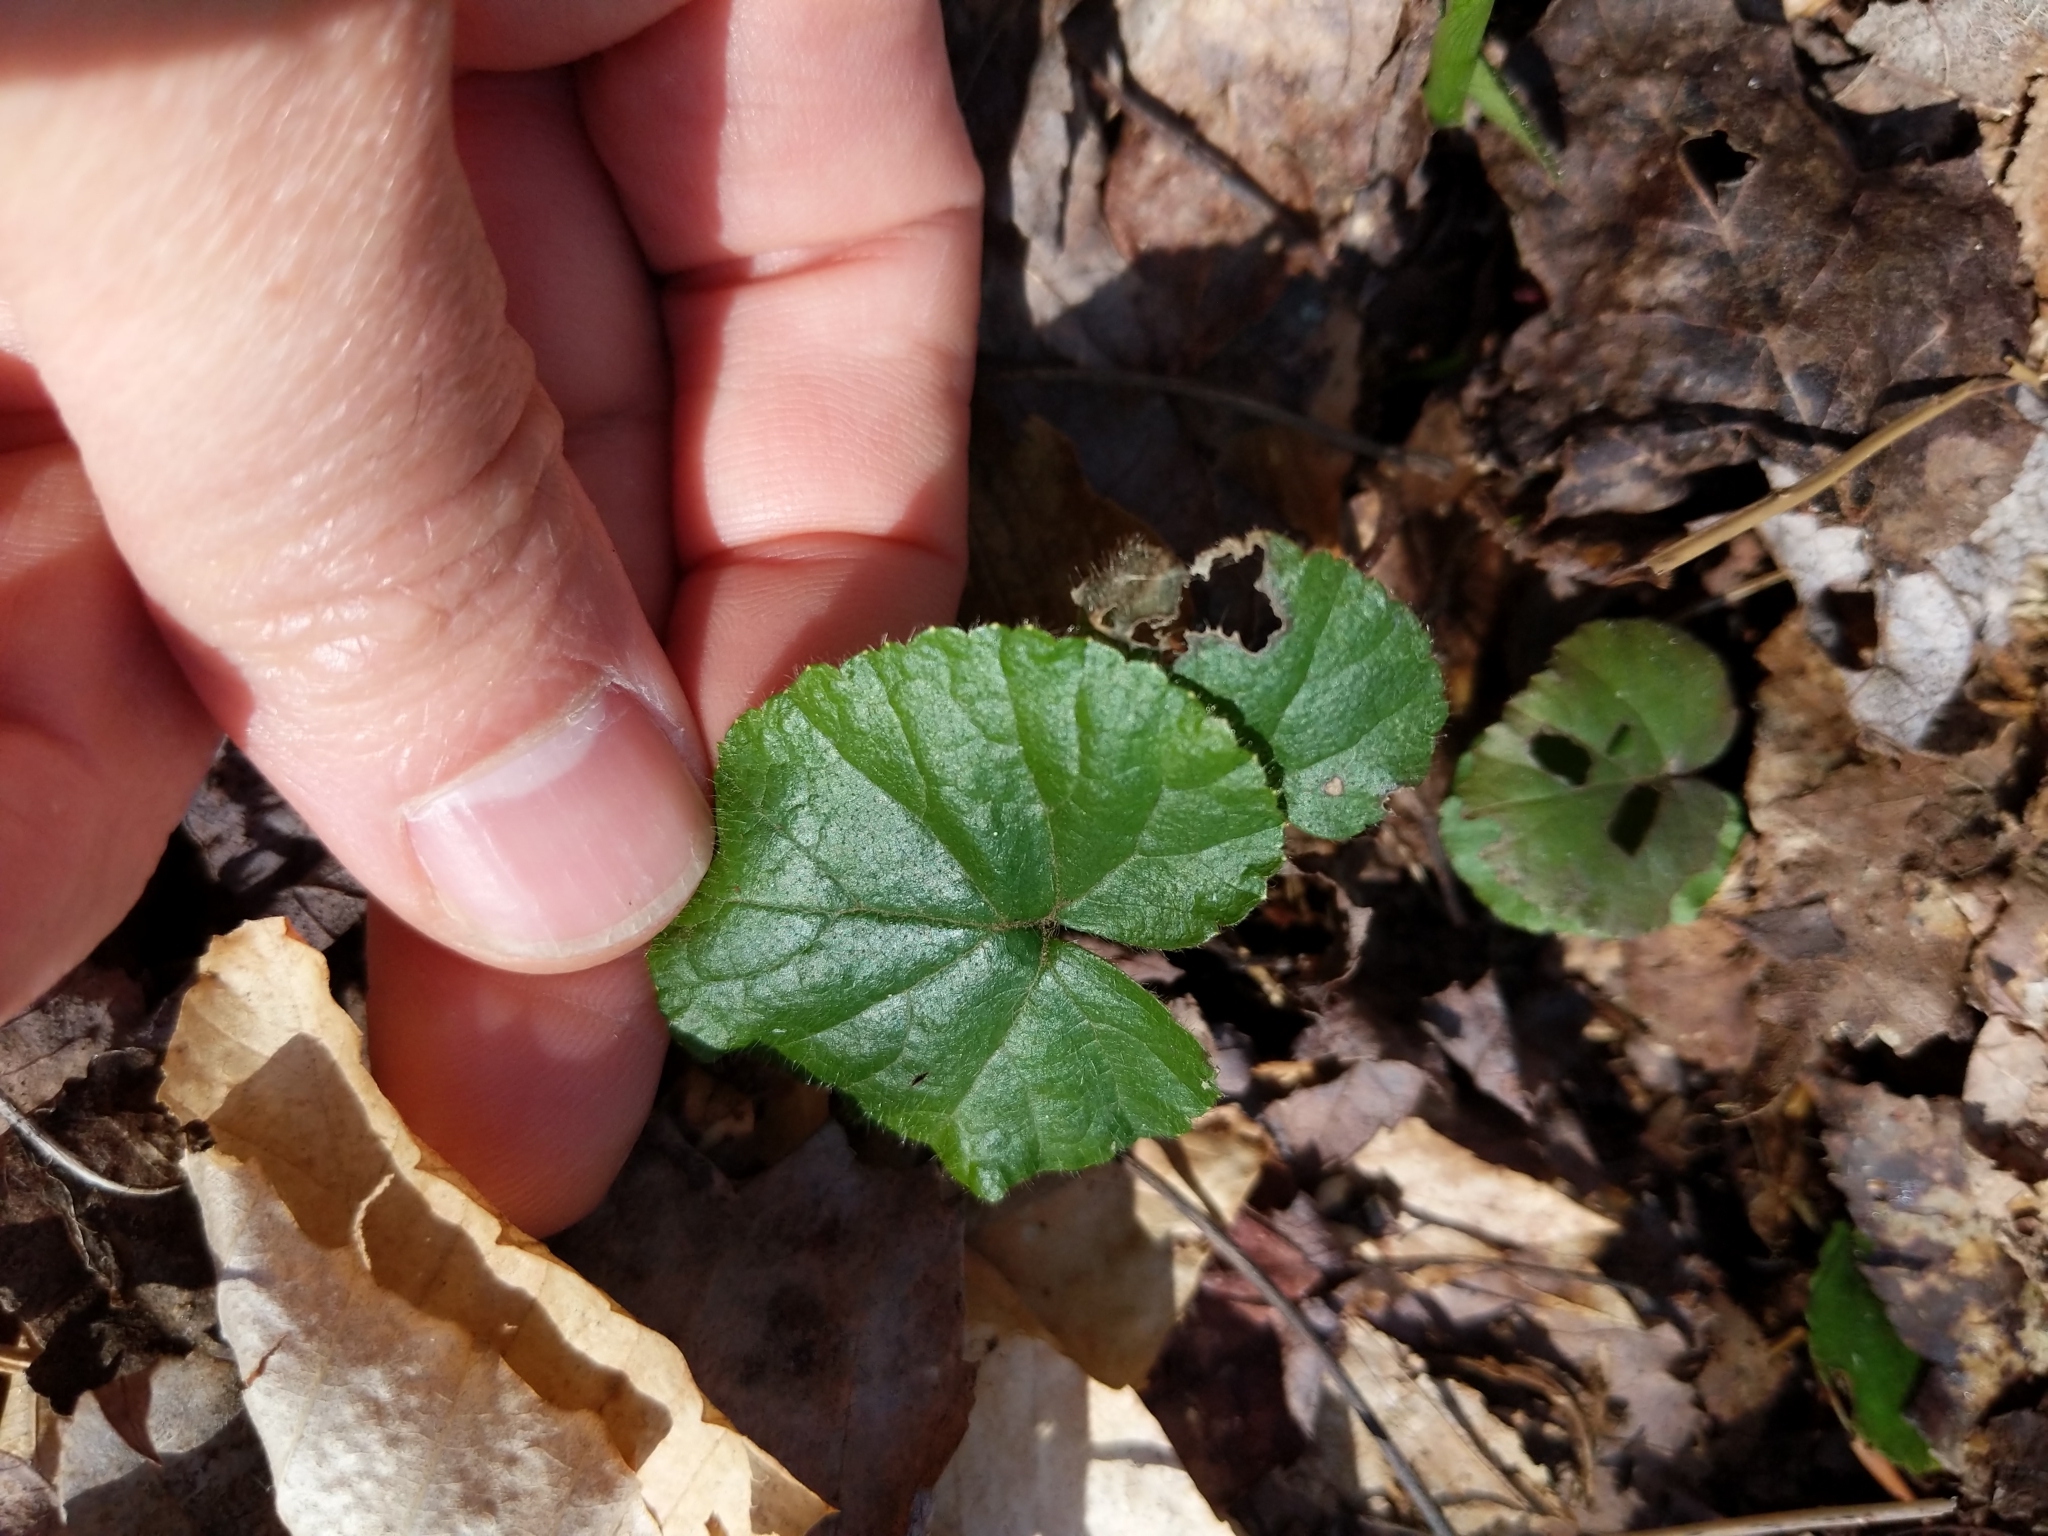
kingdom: Plantae
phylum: Tracheophyta
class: Magnoliopsida
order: Rosales
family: Rosaceae
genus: Dalibarda
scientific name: Dalibarda repens
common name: Dewdrop
